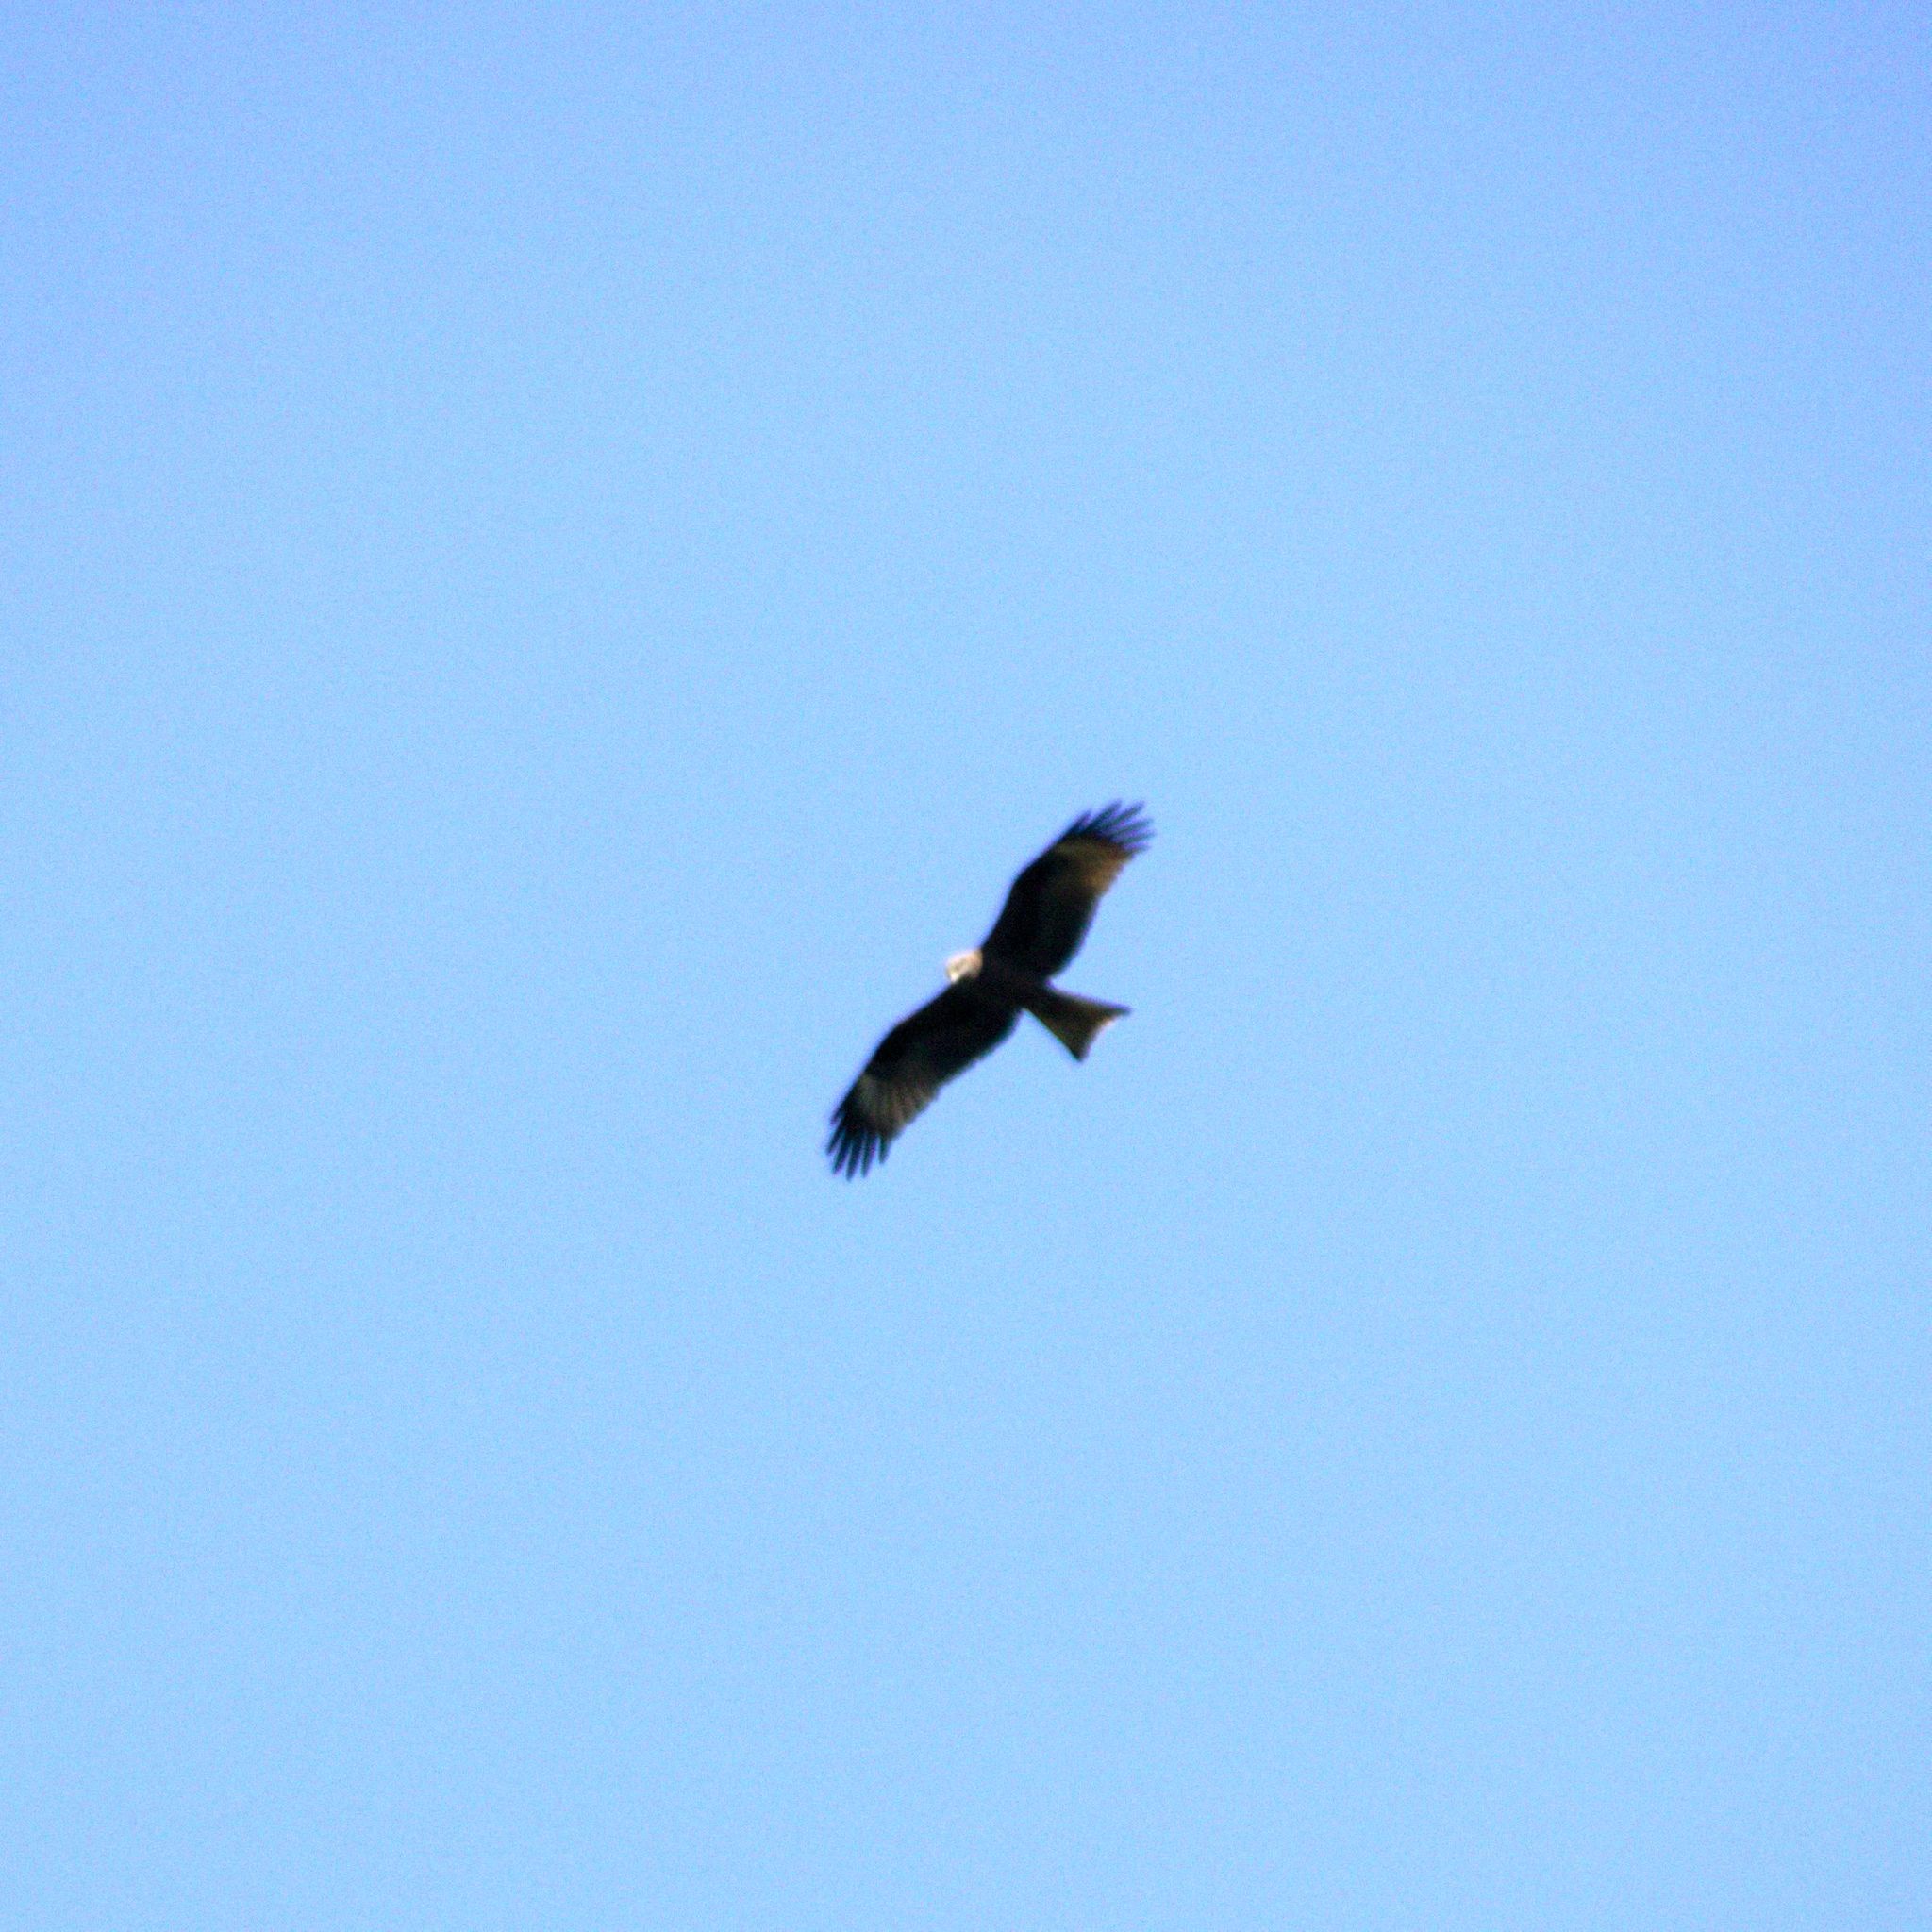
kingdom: Animalia
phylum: Chordata
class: Aves
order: Accipitriformes
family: Accipitridae
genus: Milvus
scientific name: Milvus migrans
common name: Black kite
